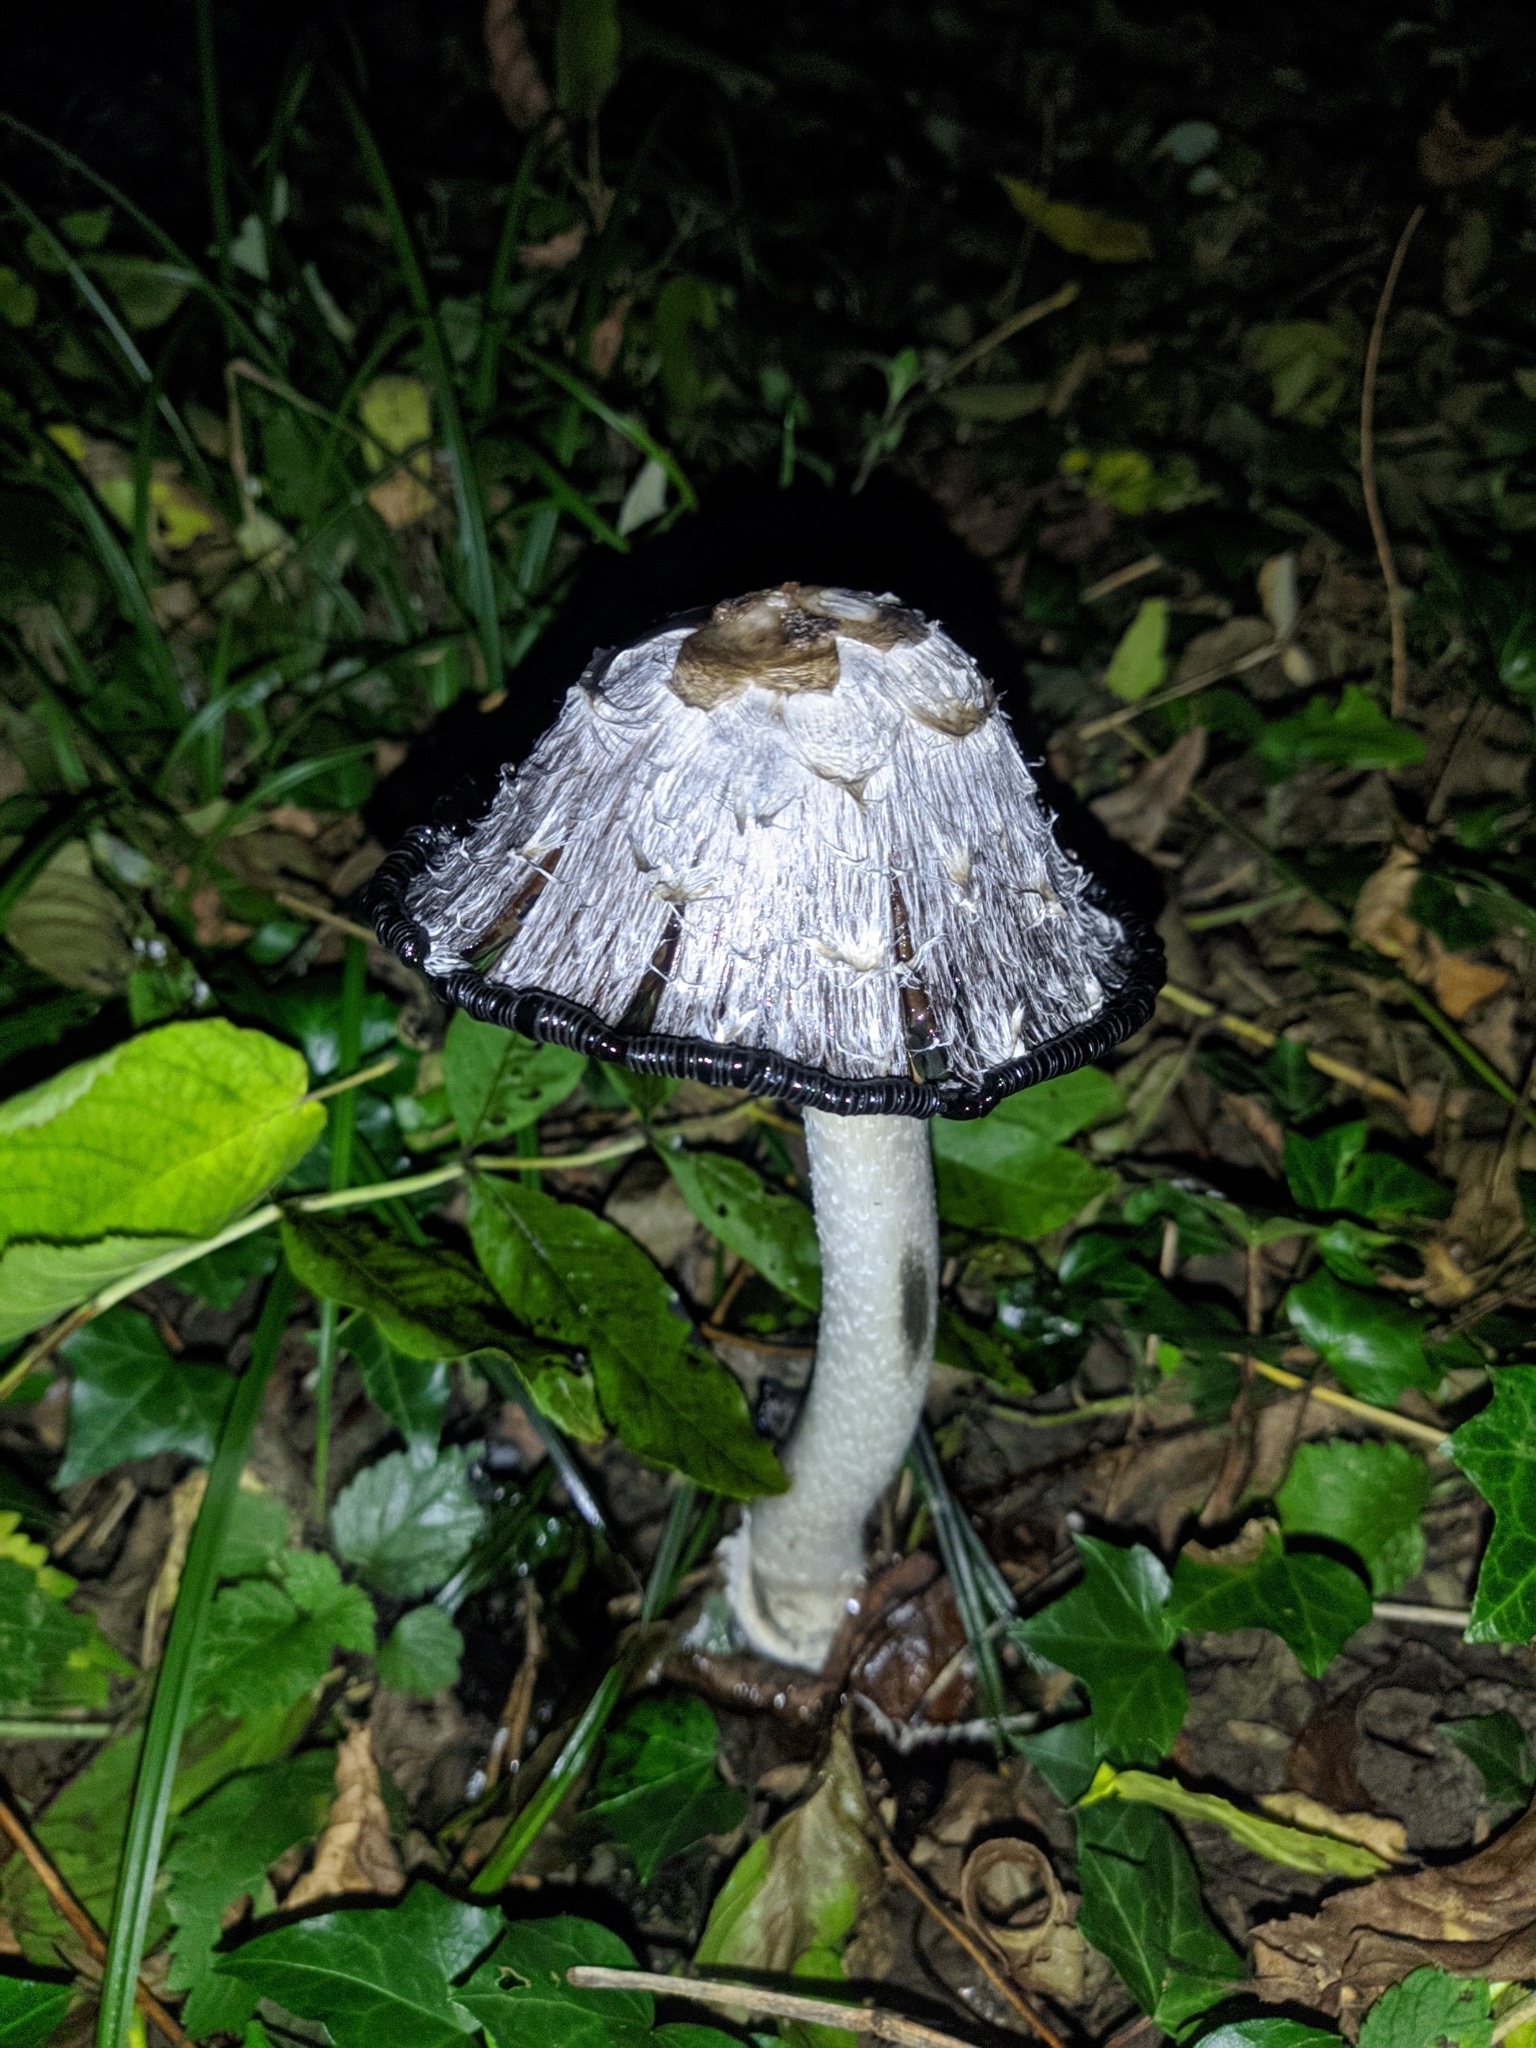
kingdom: Fungi
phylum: Basidiomycota
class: Agaricomycetes
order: Agaricales
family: Agaricaceae
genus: Coprinus
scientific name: Coprinus comatus
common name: Lawyer's wig
